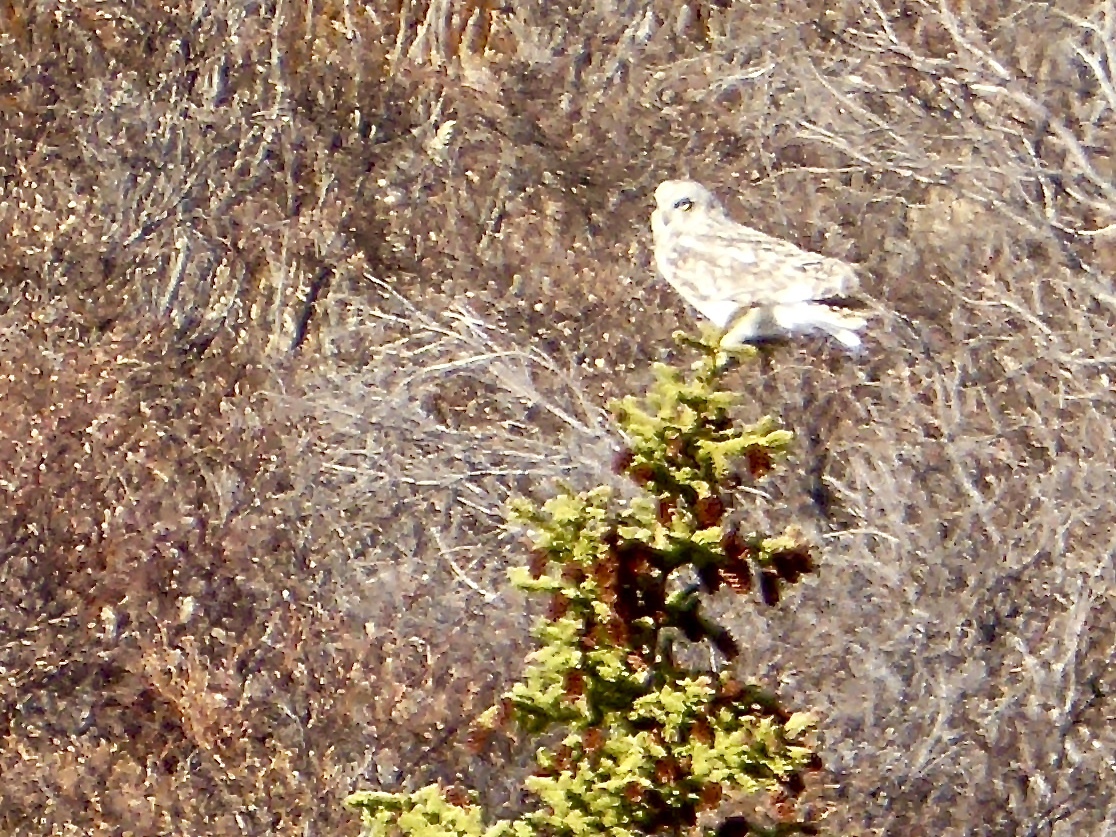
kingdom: Animalia
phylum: Chordata
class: Aves
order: Strigiformes
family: Strigidae
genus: Asio
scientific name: Asio flammeus
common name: Short-eared owl
